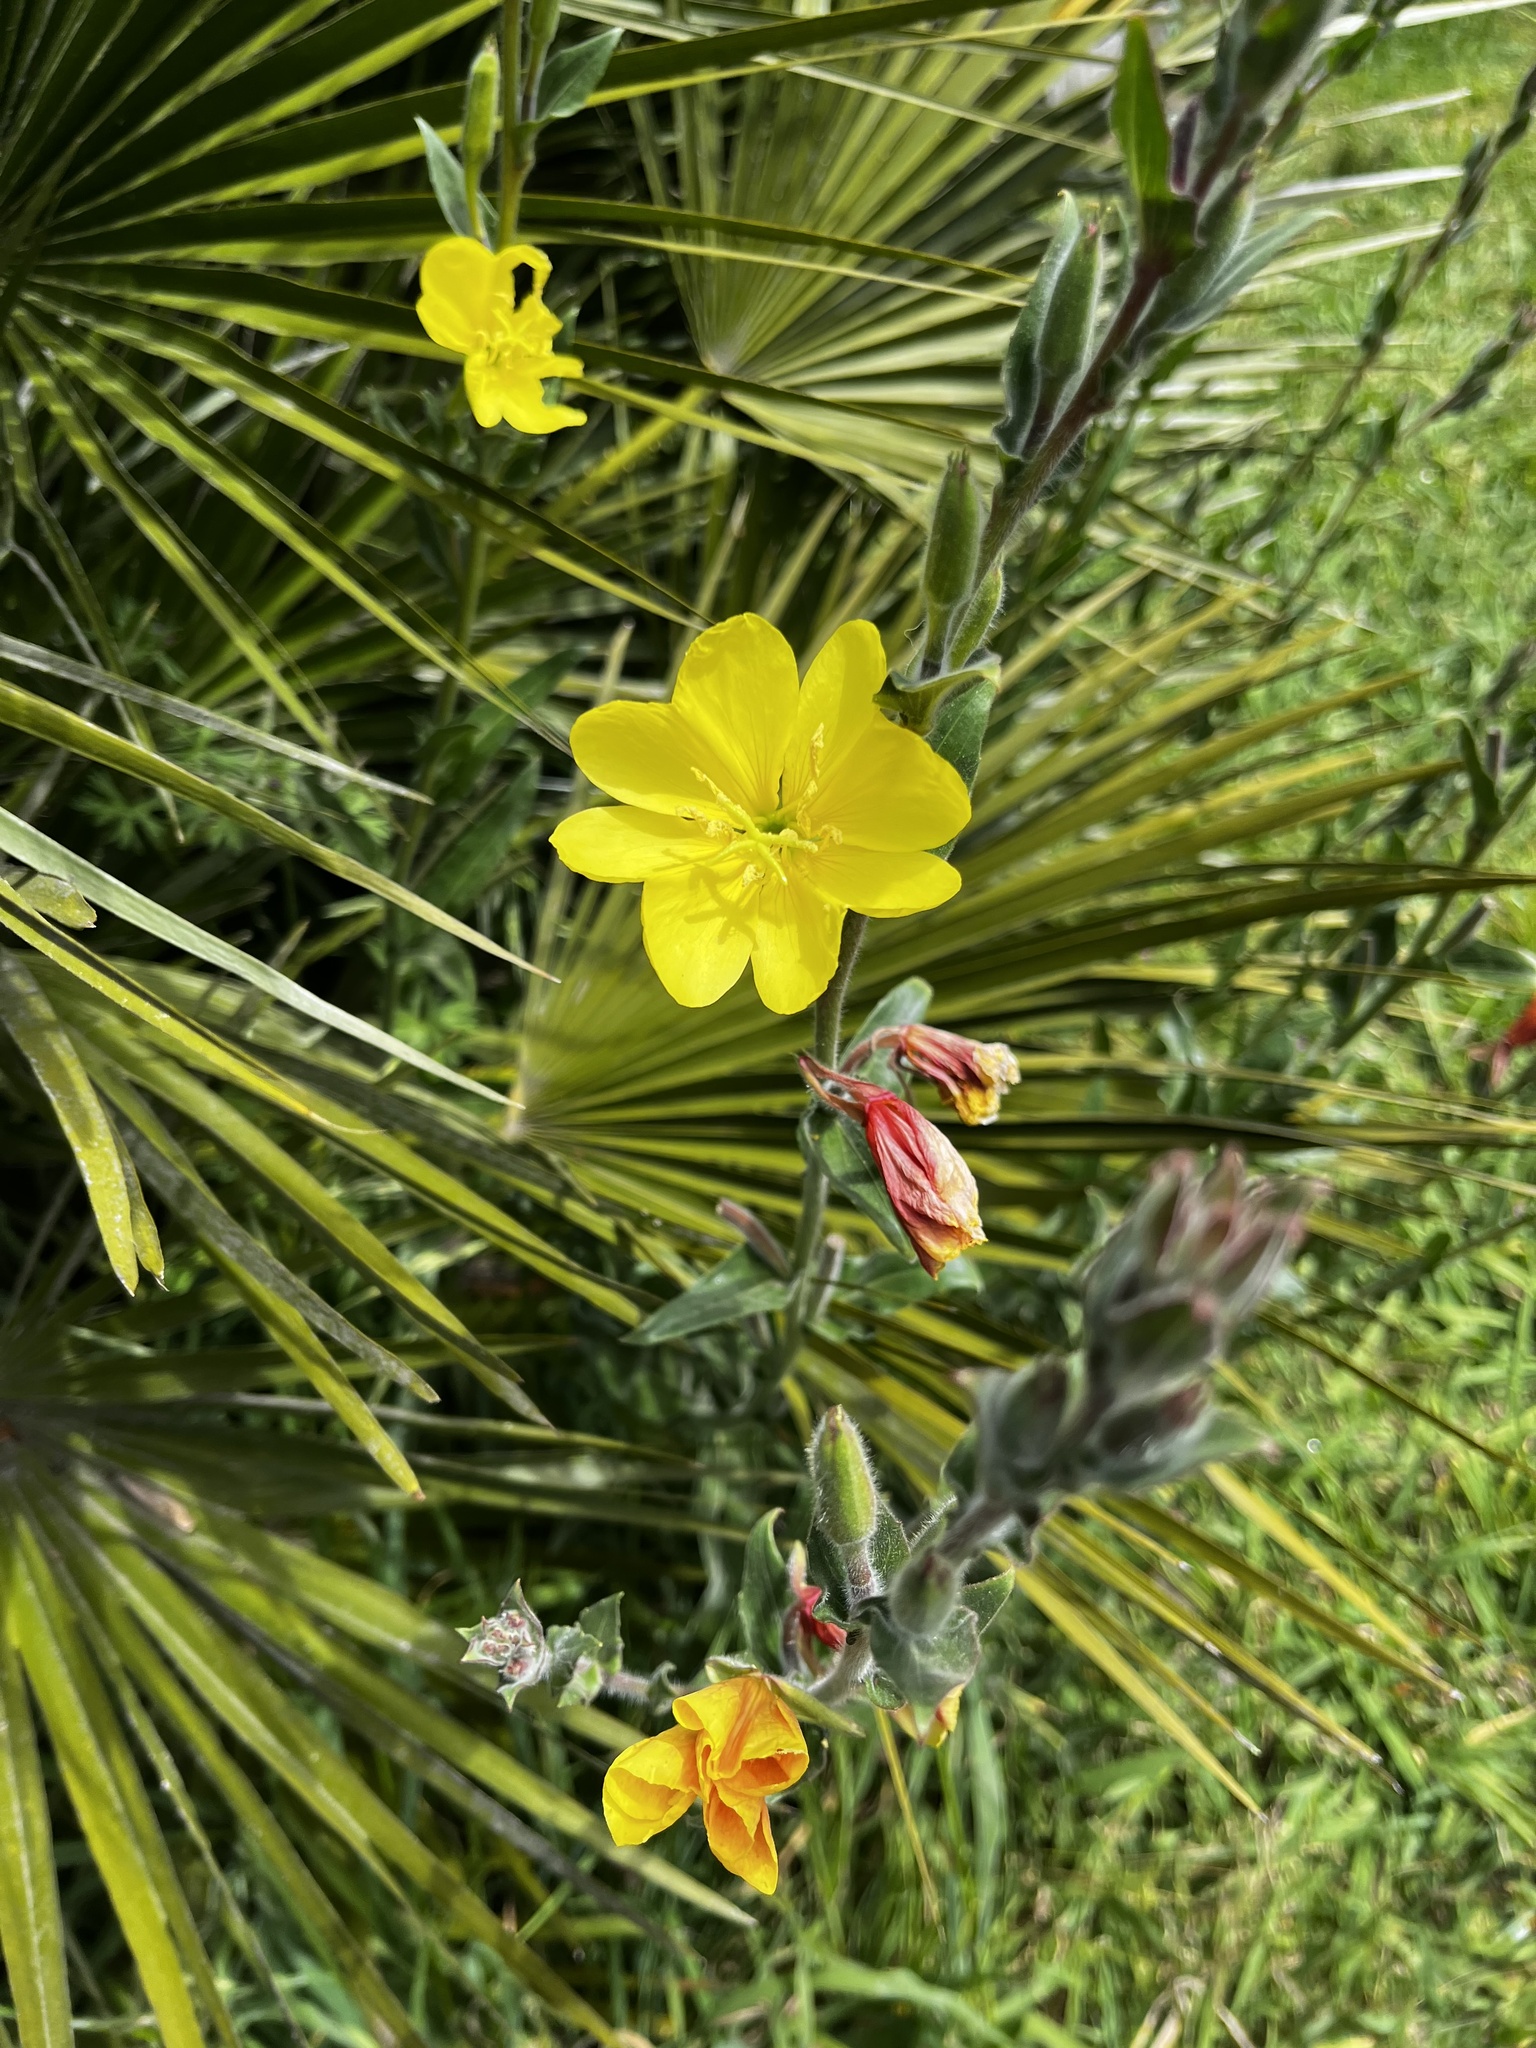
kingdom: Plantae
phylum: Tracheophyta
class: Magnoliopsida
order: Myrtales
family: Onagraceae
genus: Oenothera
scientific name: Oenothera stricta
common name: Fragrant evening-primrose
